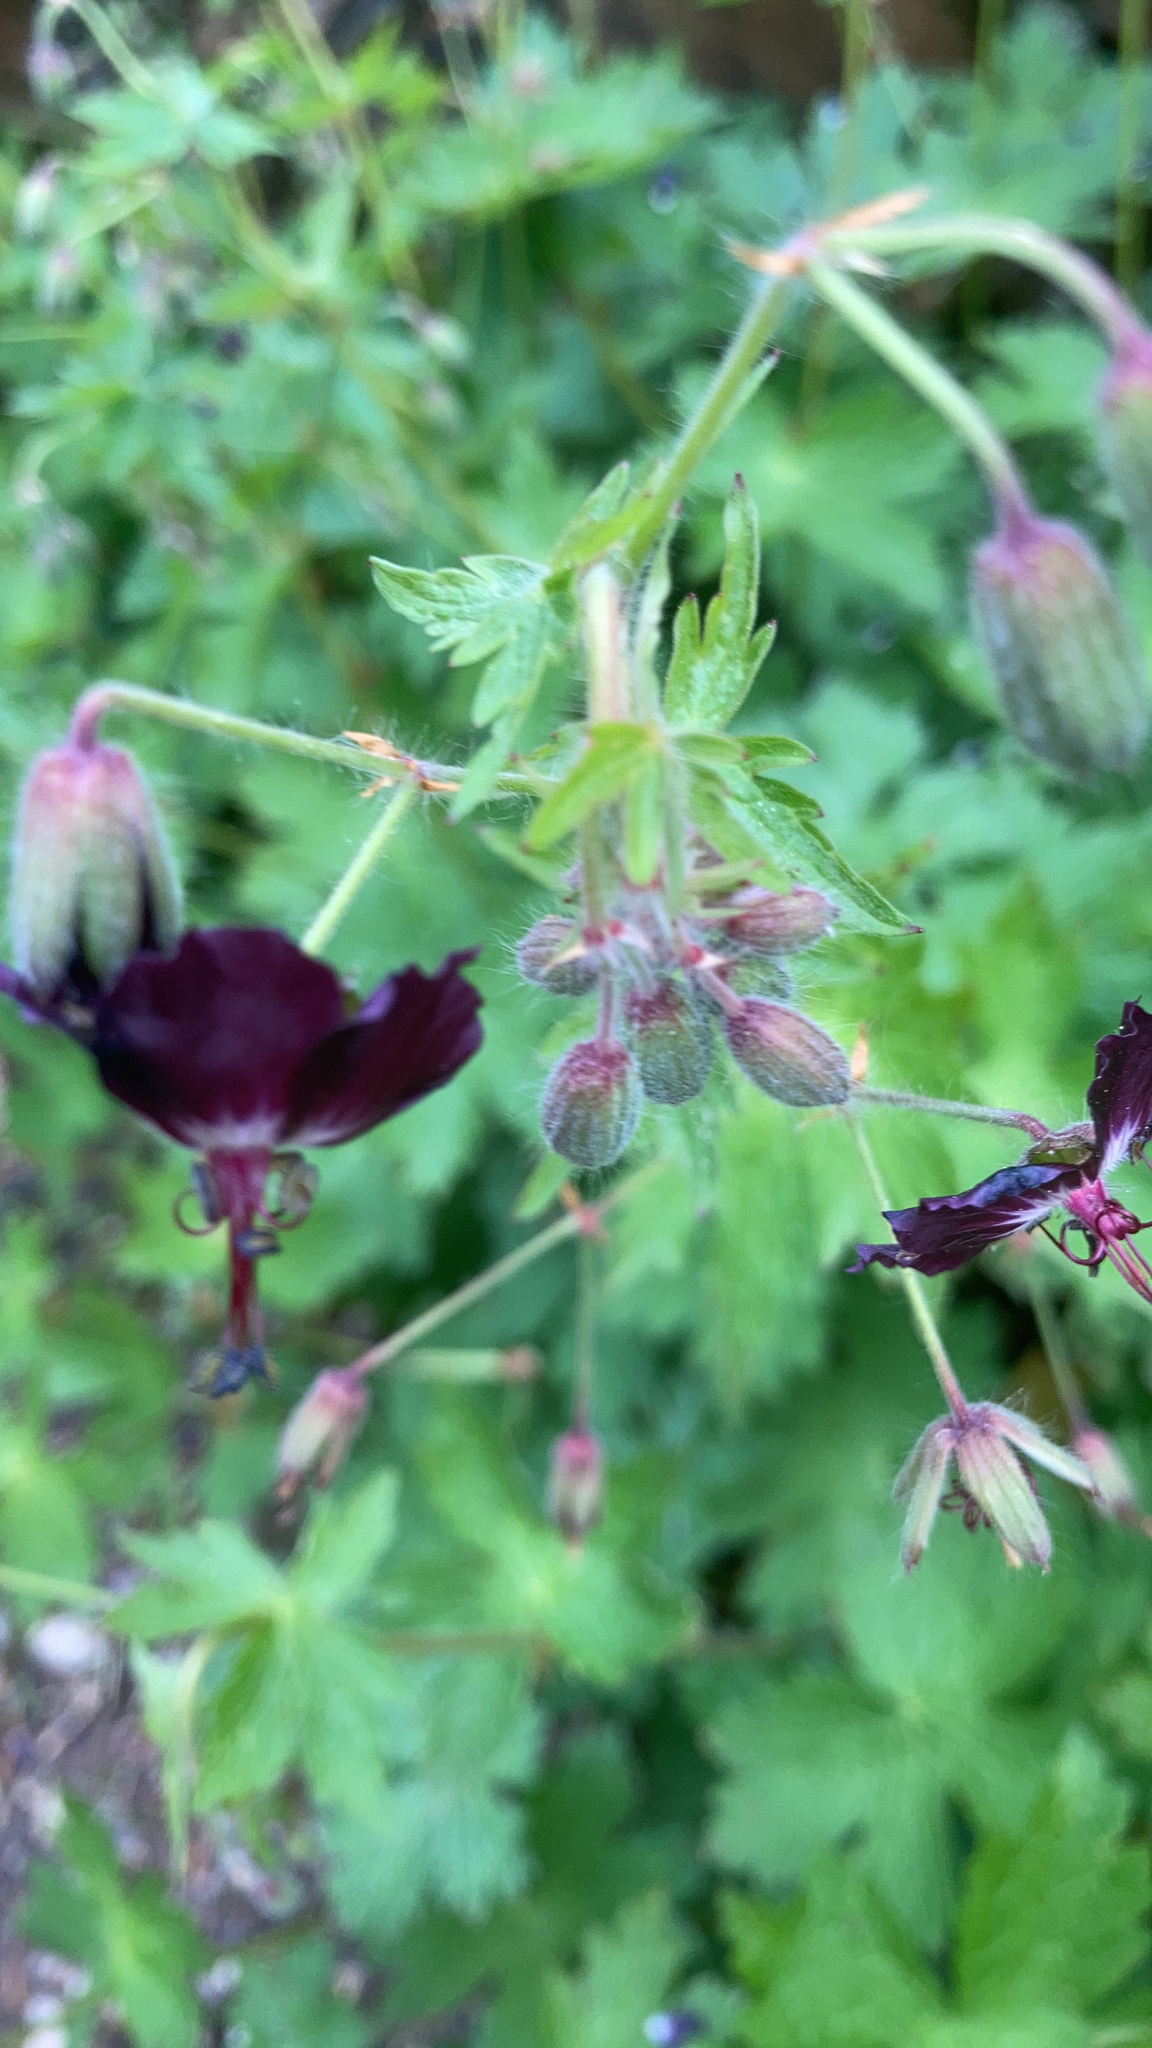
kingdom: Plantae
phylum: Tracheophyta
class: Magnoliopsida
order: Geraniales
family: Geraniaceae
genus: Geranium
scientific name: Geranium phaeum
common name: Dusky crane's-bill
